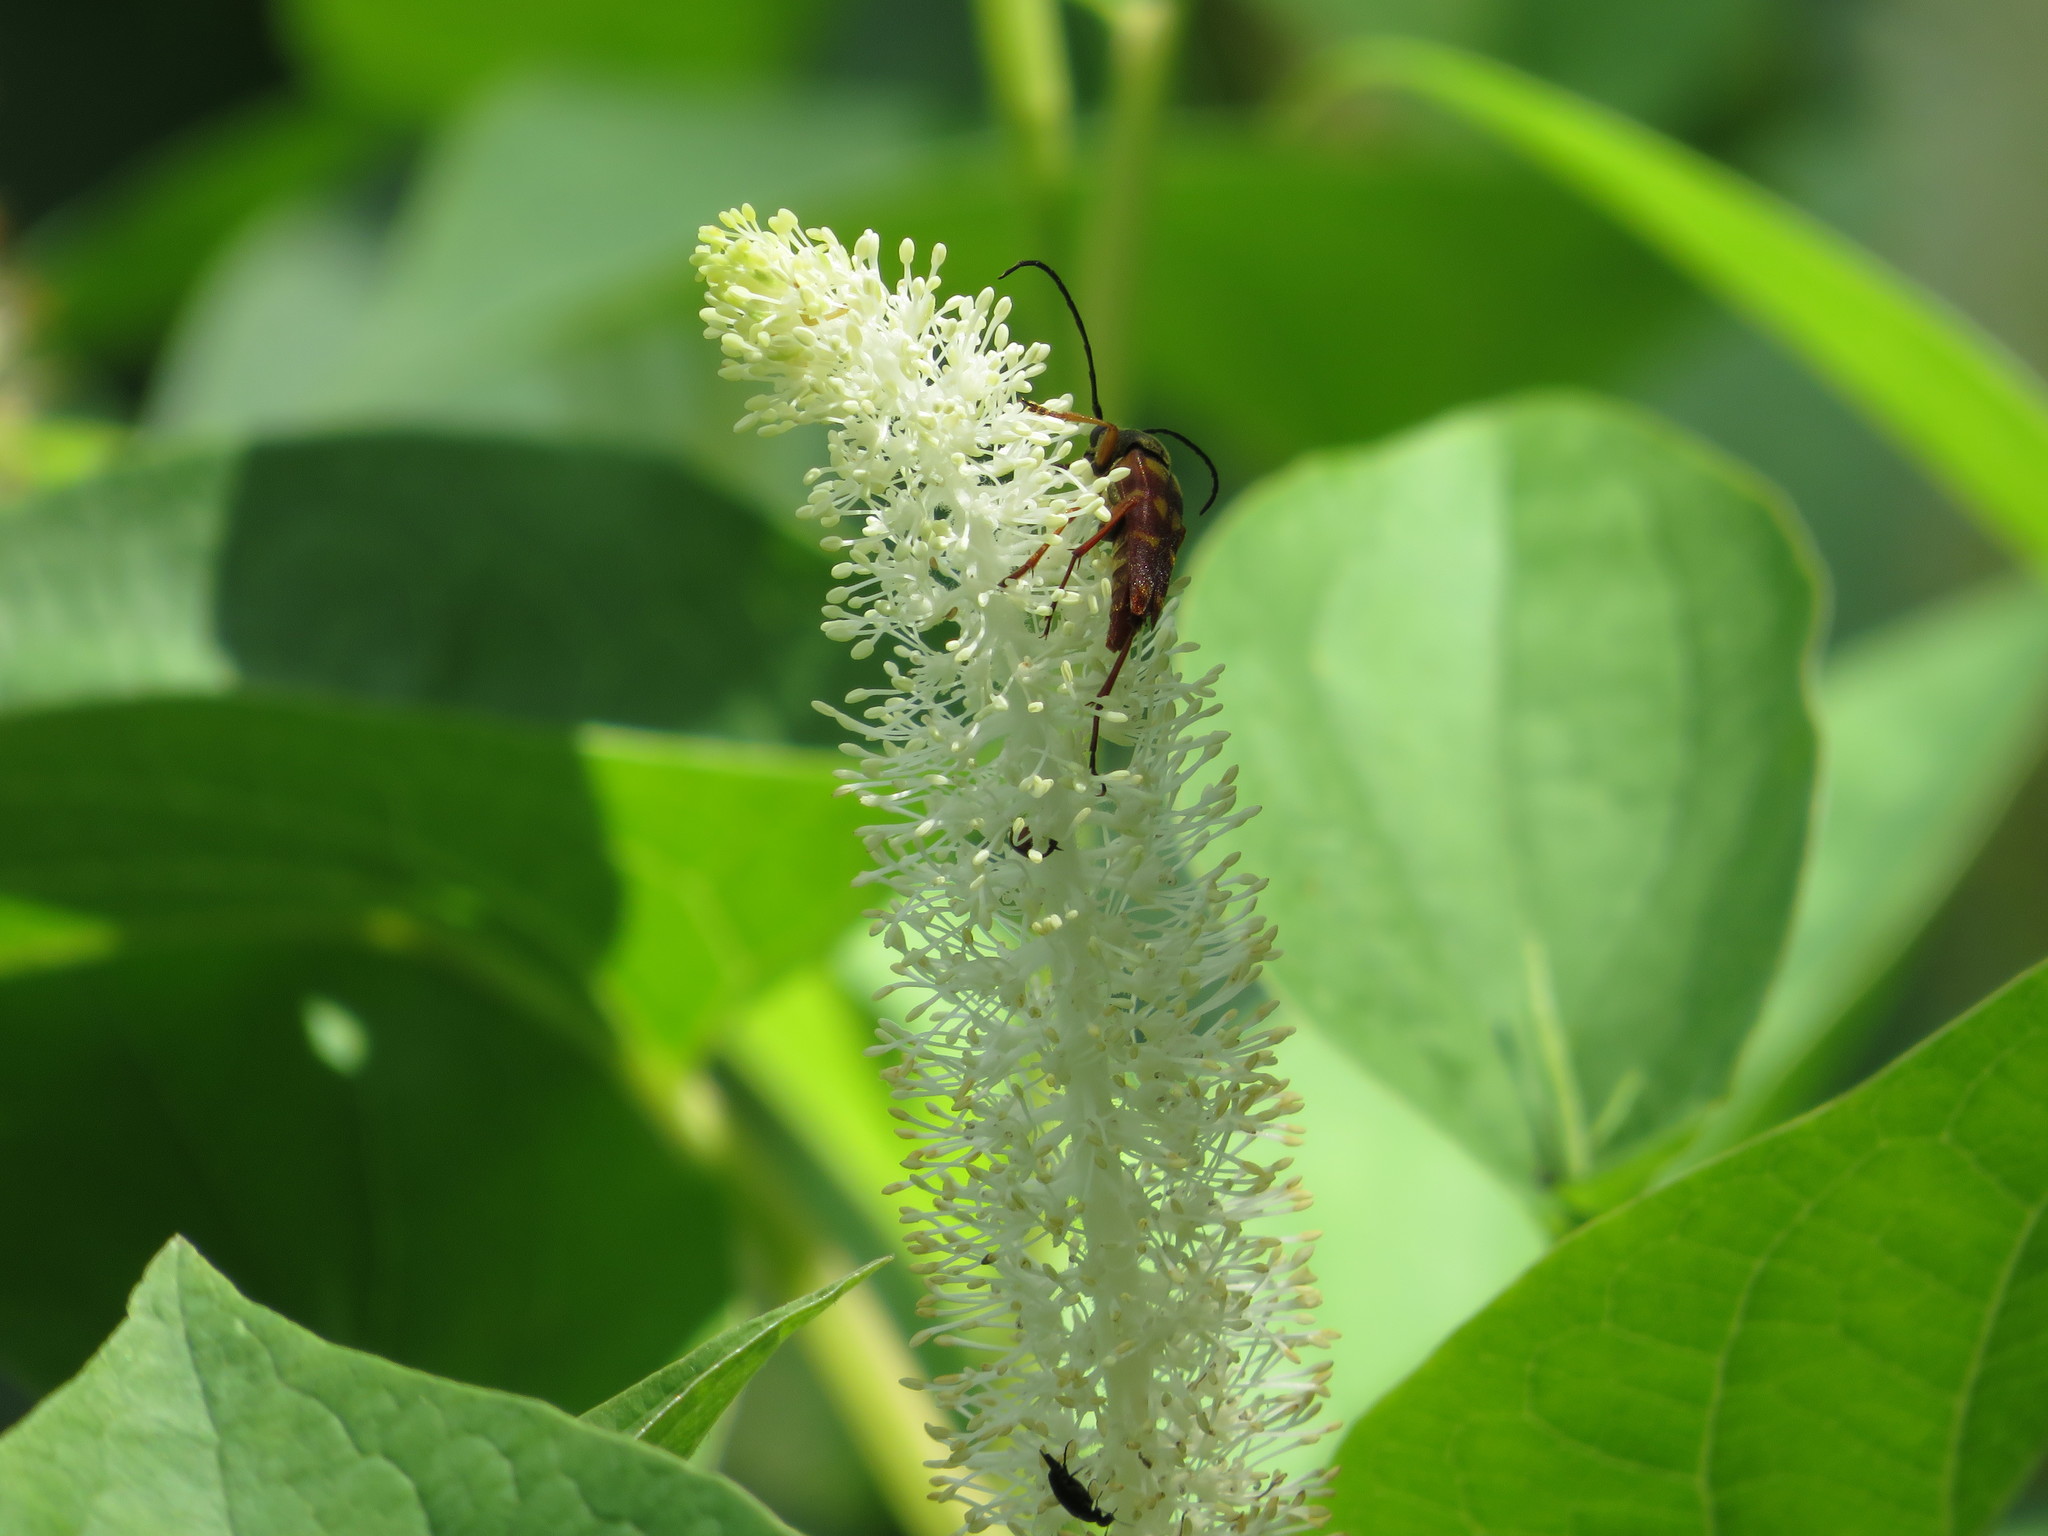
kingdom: Animalia
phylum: Arthropoda
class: Insecta
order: Coleoptera
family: Cerambycidae
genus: Typocerus
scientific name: Typocerus velutinus
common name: Banded longhorn beetle
